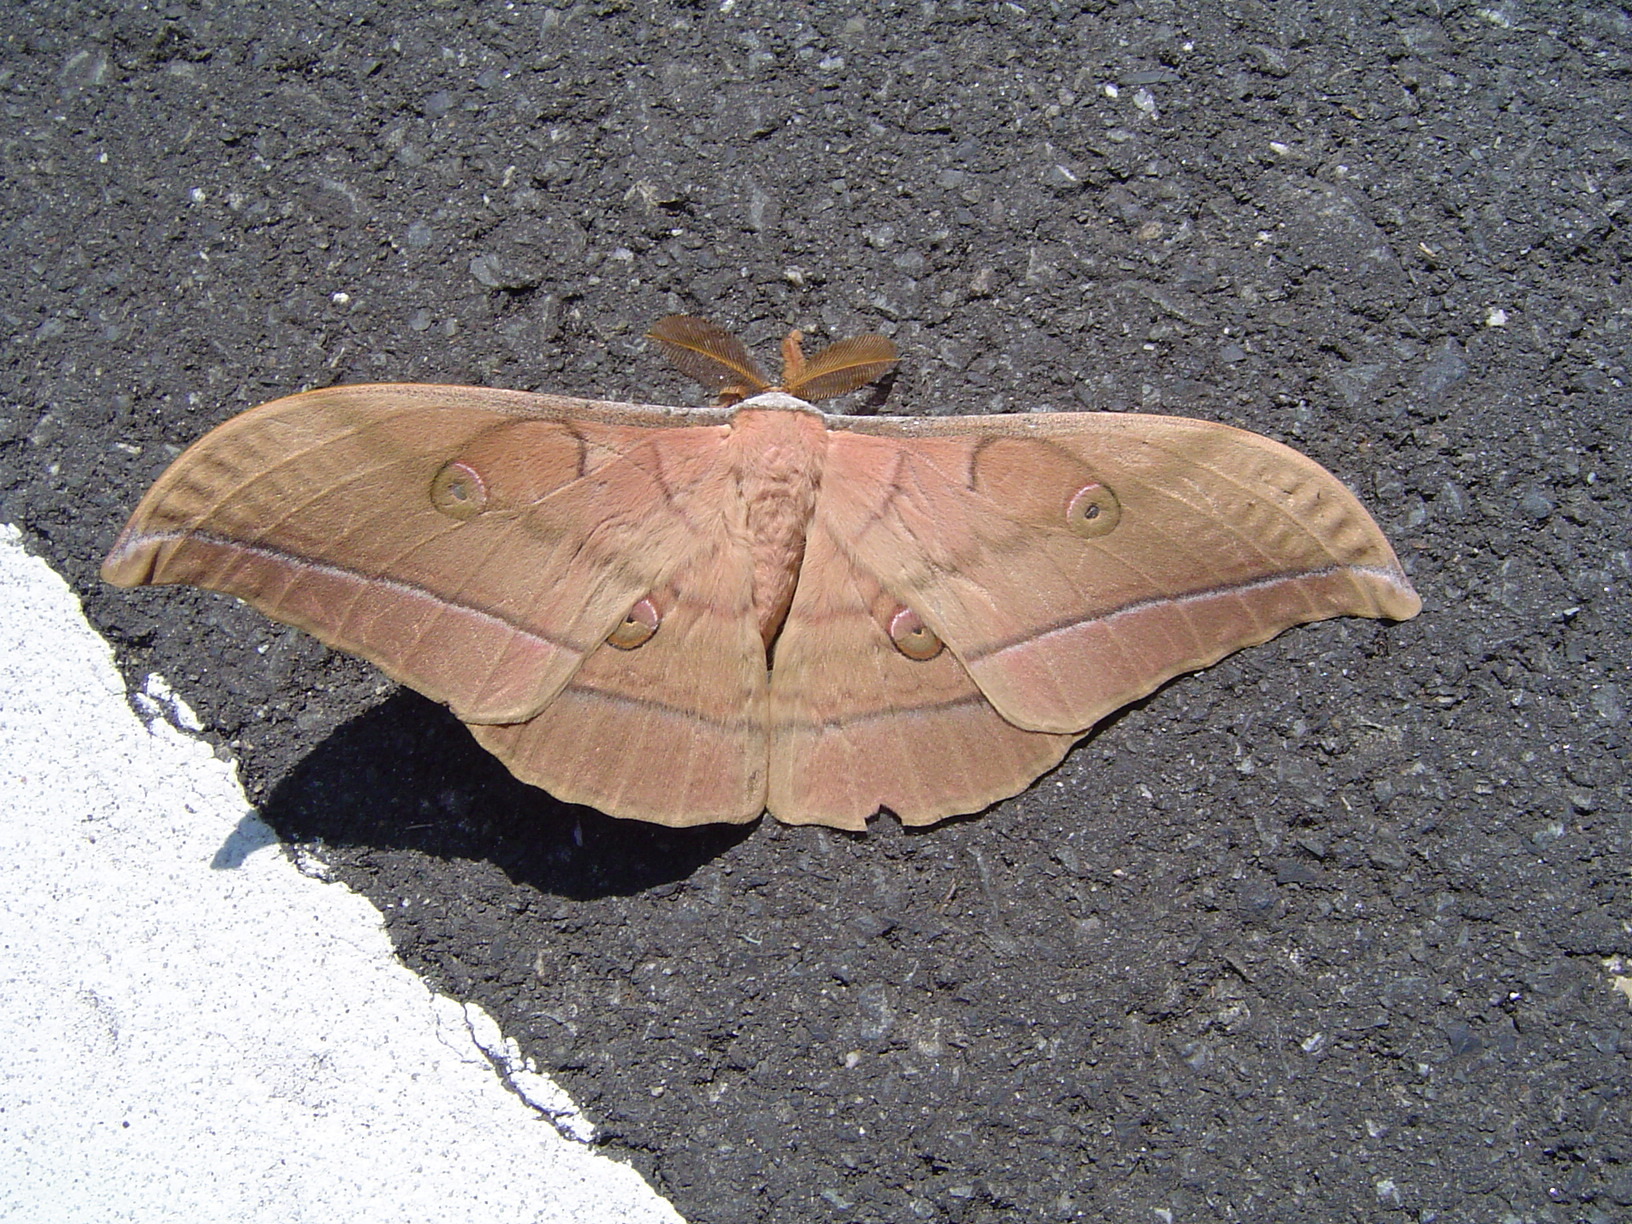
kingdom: Animalia
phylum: Arthropoda
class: Insecta
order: Lepidoptera
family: Saturniidae
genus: Antheraea
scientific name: Antheraea yamamai
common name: Japanese oak silk moth
